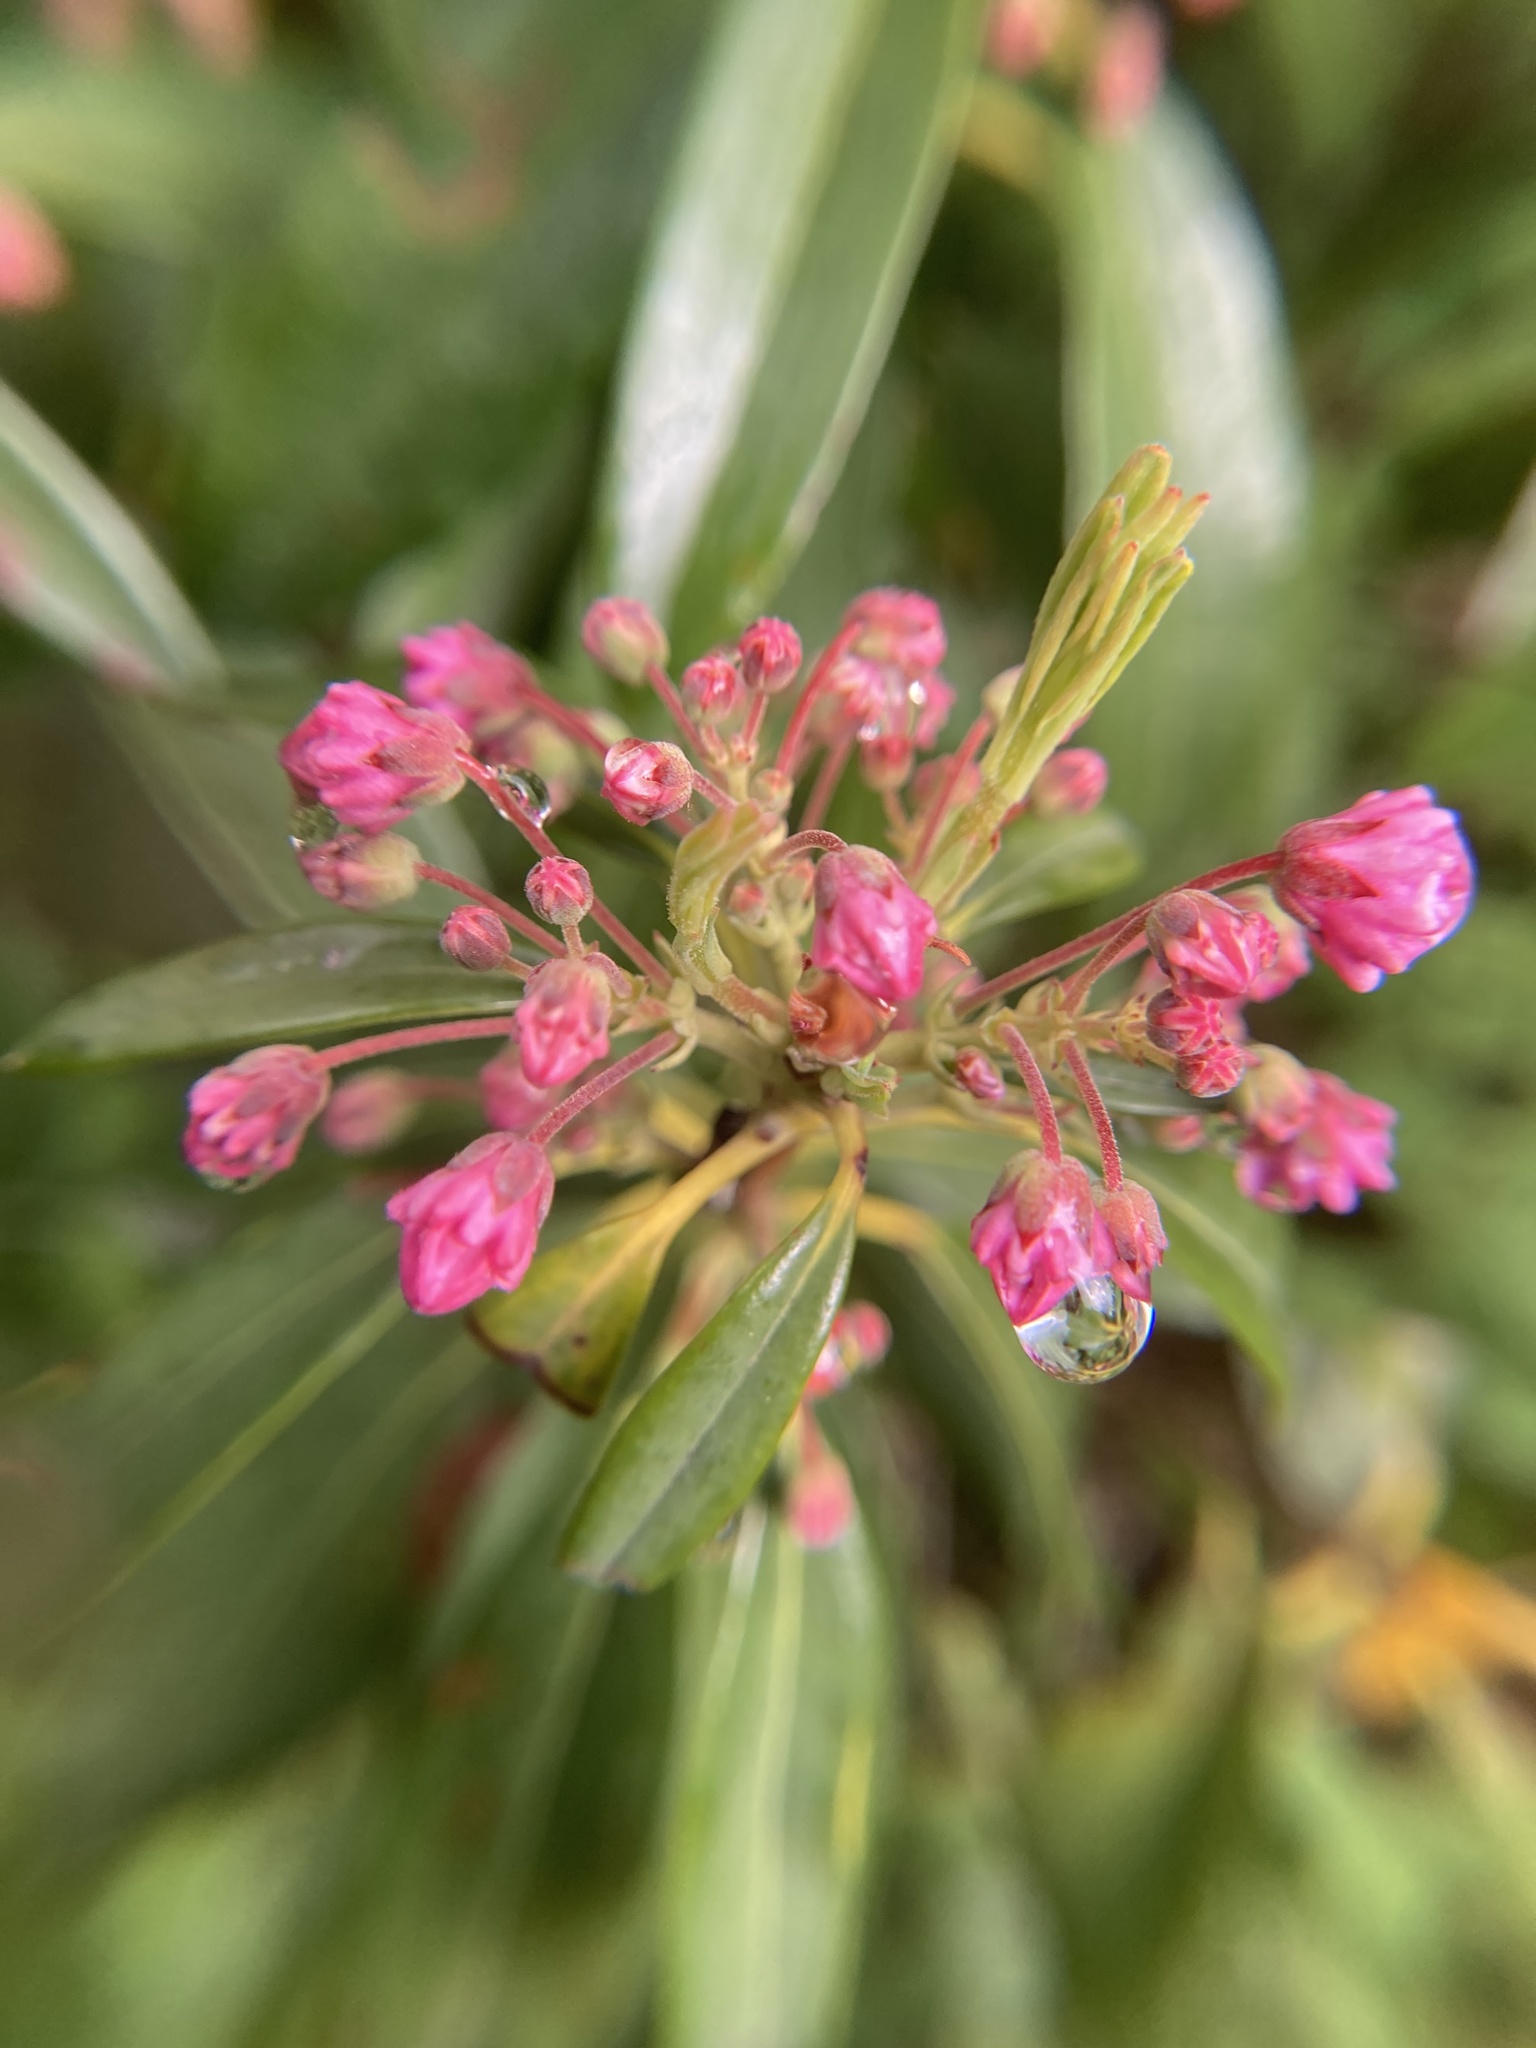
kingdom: Plantae
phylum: Tracheophyta
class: Magnoliopsida
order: Ericales
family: Ericaceae
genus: Kalmia
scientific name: Kalmia angustifolia
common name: Sheep-laurel
